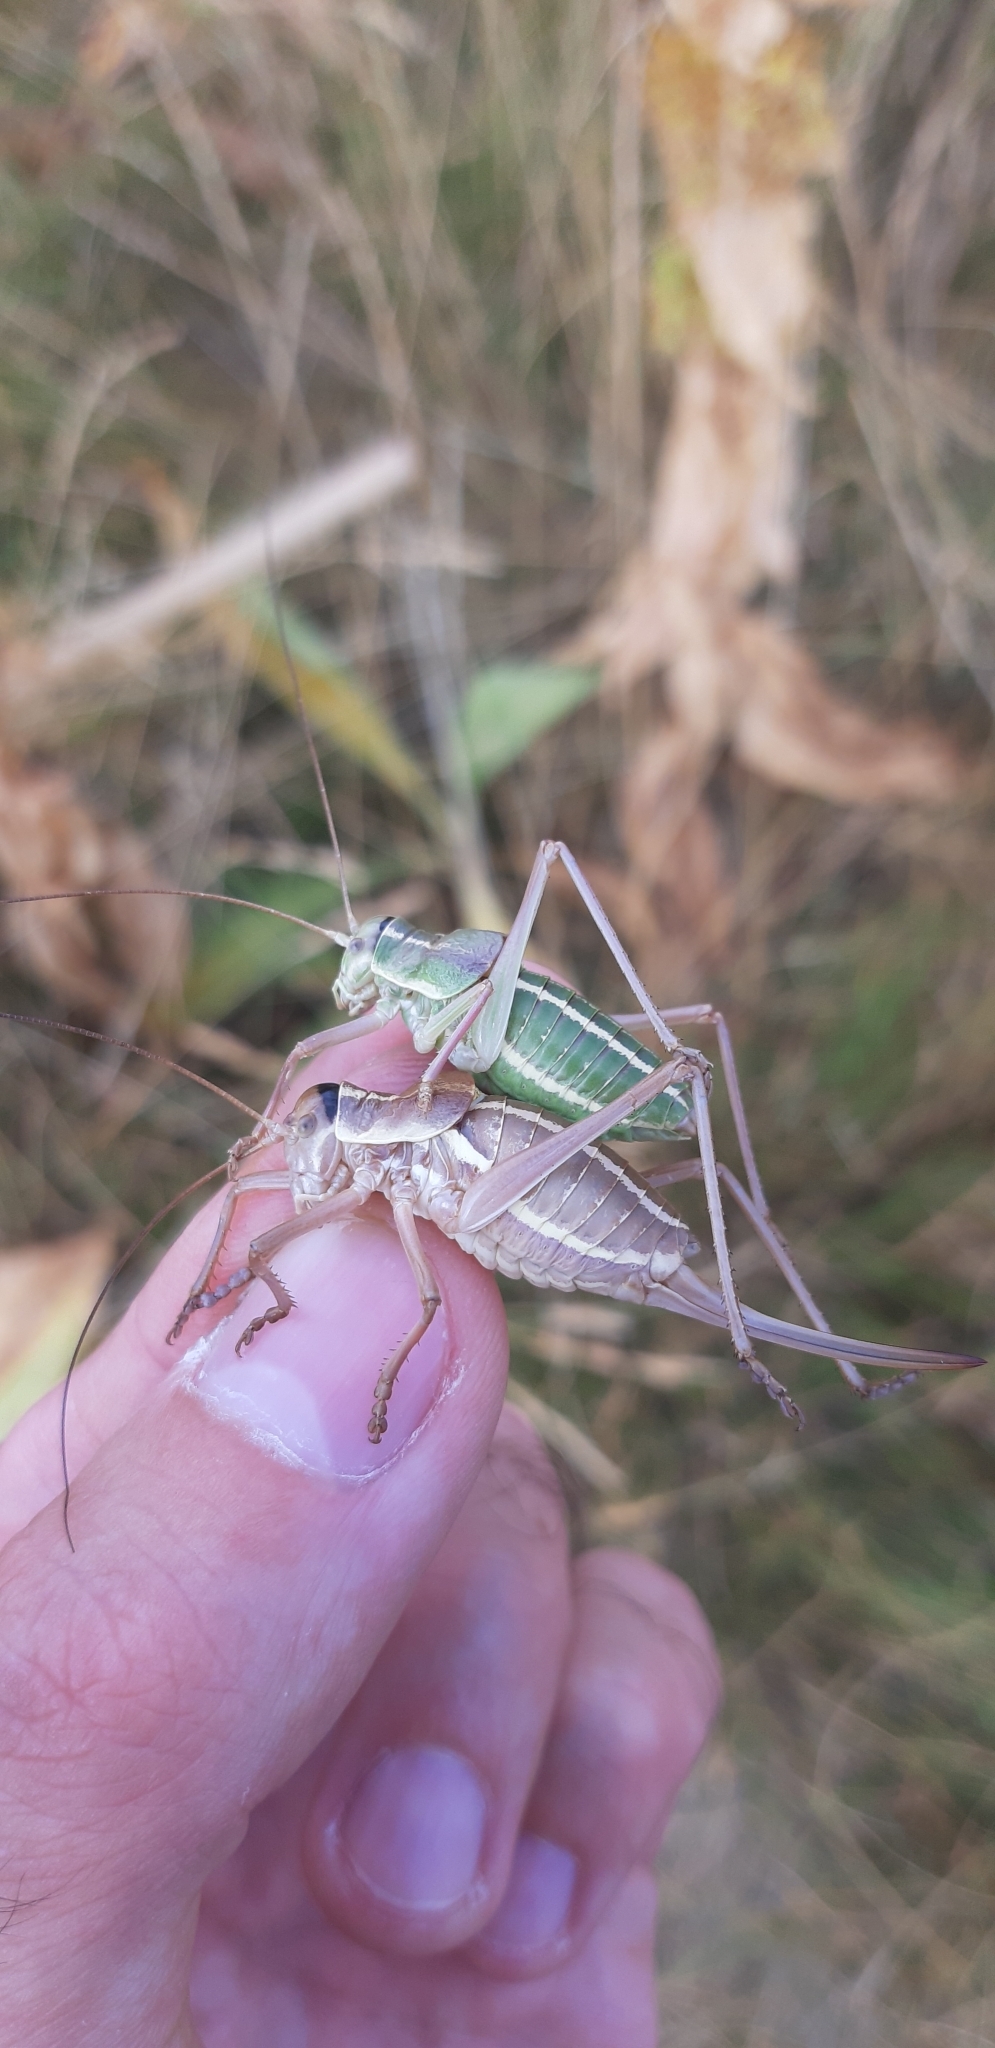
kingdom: Animalia
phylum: Arthropoda
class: Insecta
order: Orthoptera
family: Tettigoniidae
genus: Ephippiger
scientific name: Ephippiger ruffoi
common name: Pygmy saddle bush-cricket
